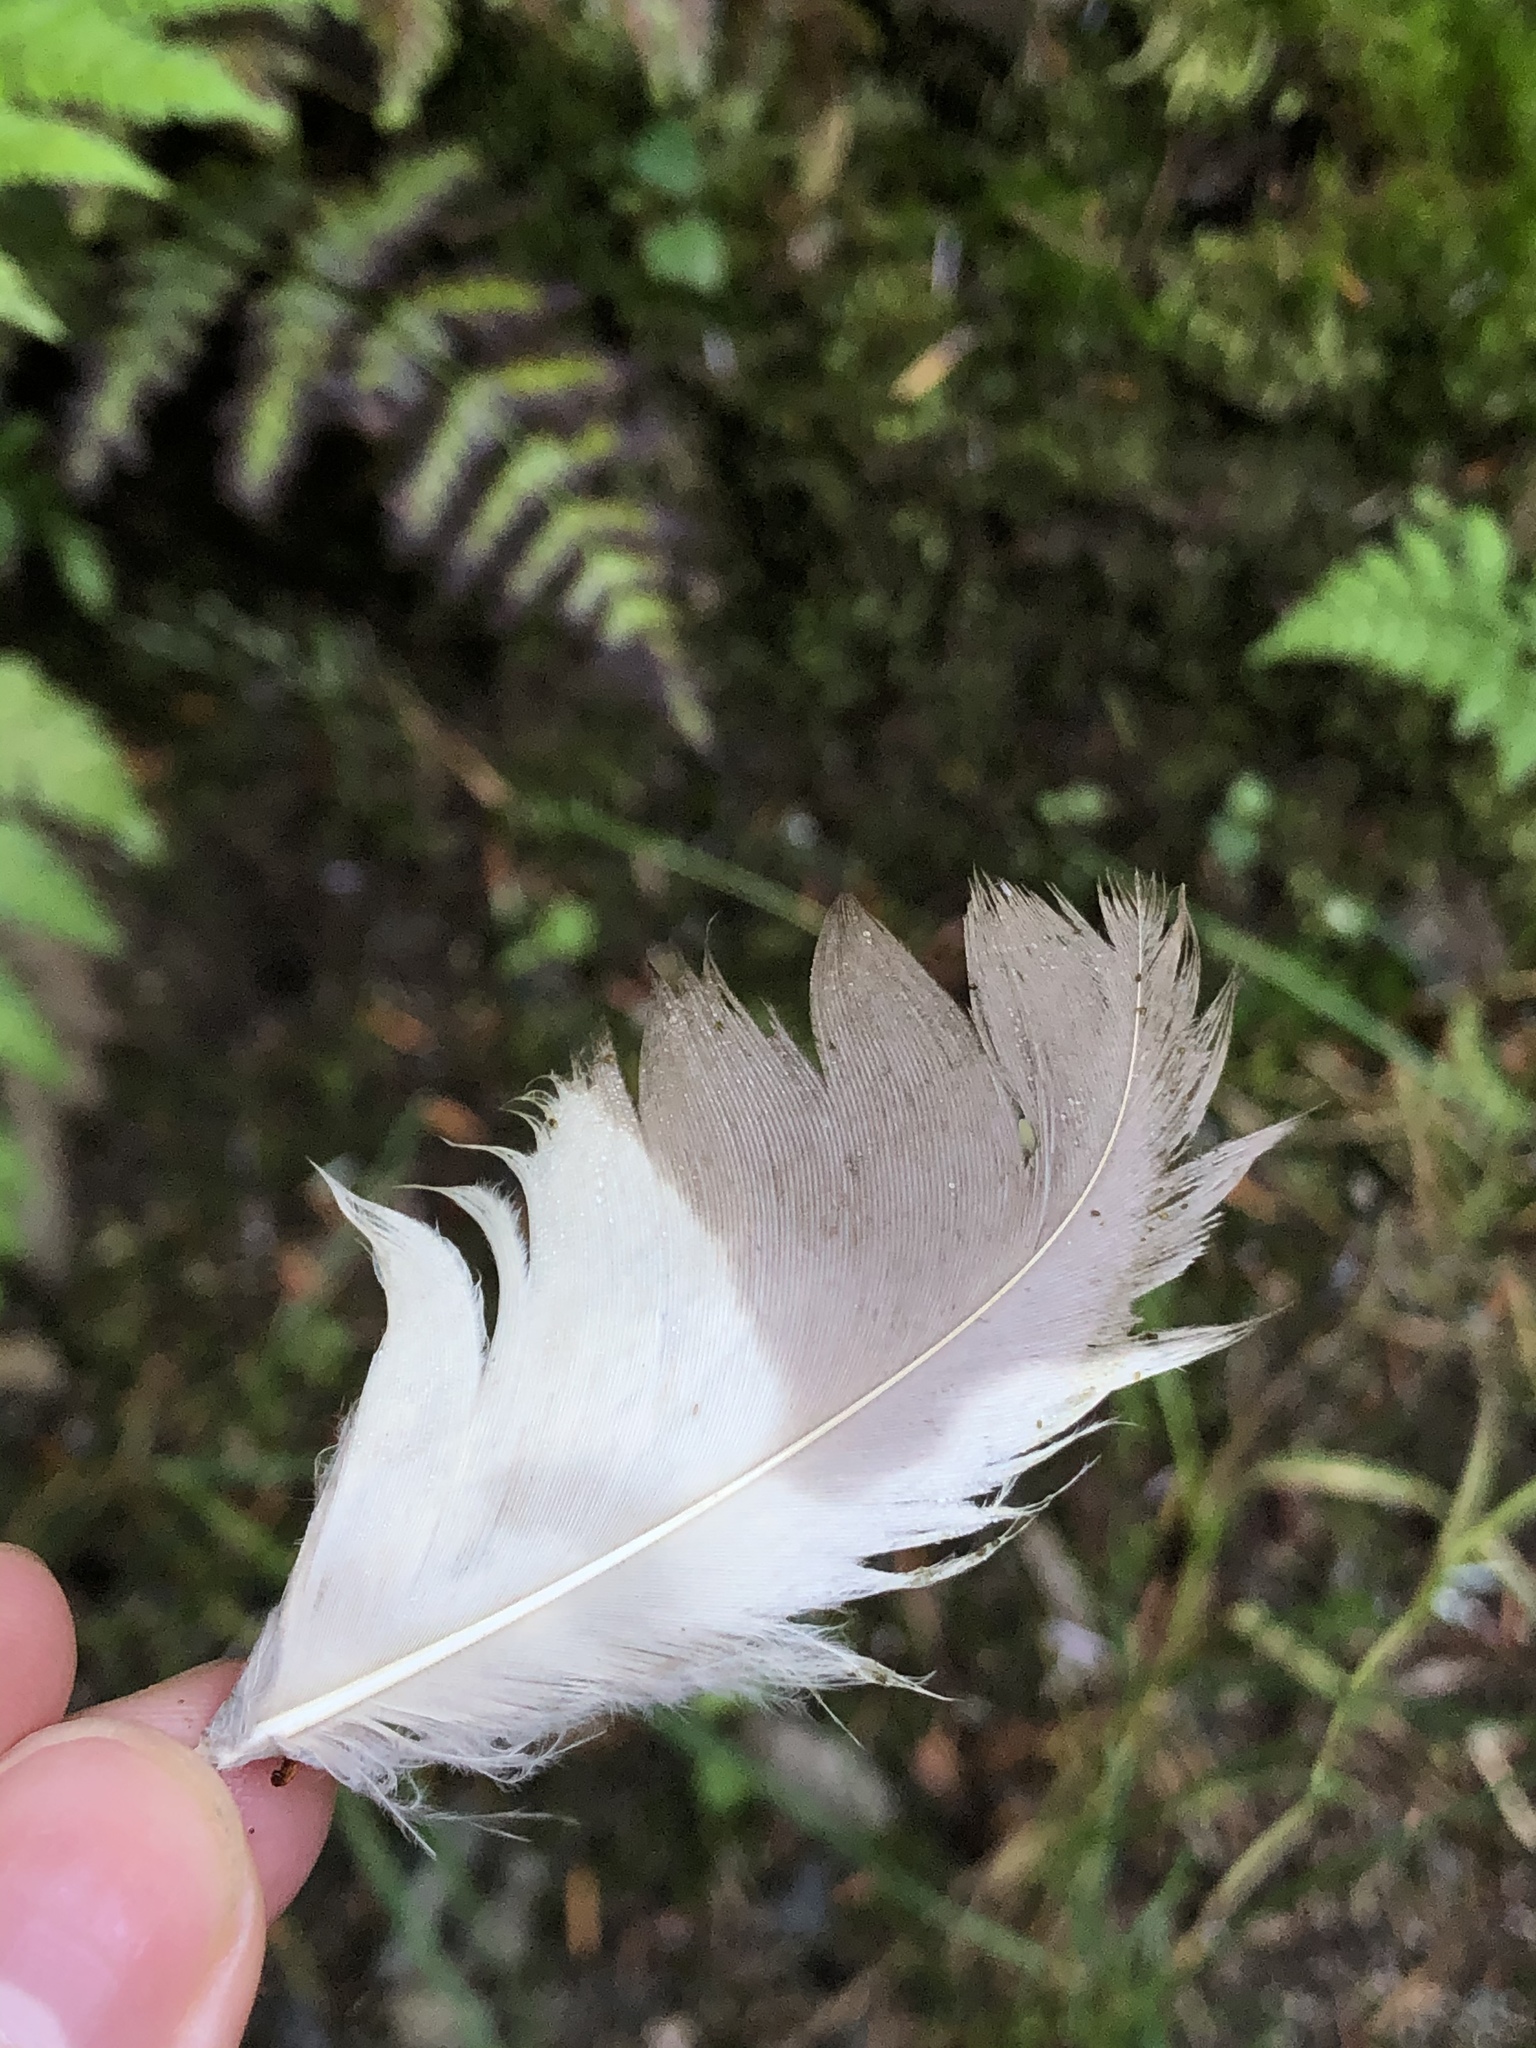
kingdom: Animalia
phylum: Chordata
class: Aves
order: Strigiformes
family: Strigidae
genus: Strix
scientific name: Strix varia
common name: Barred owl
